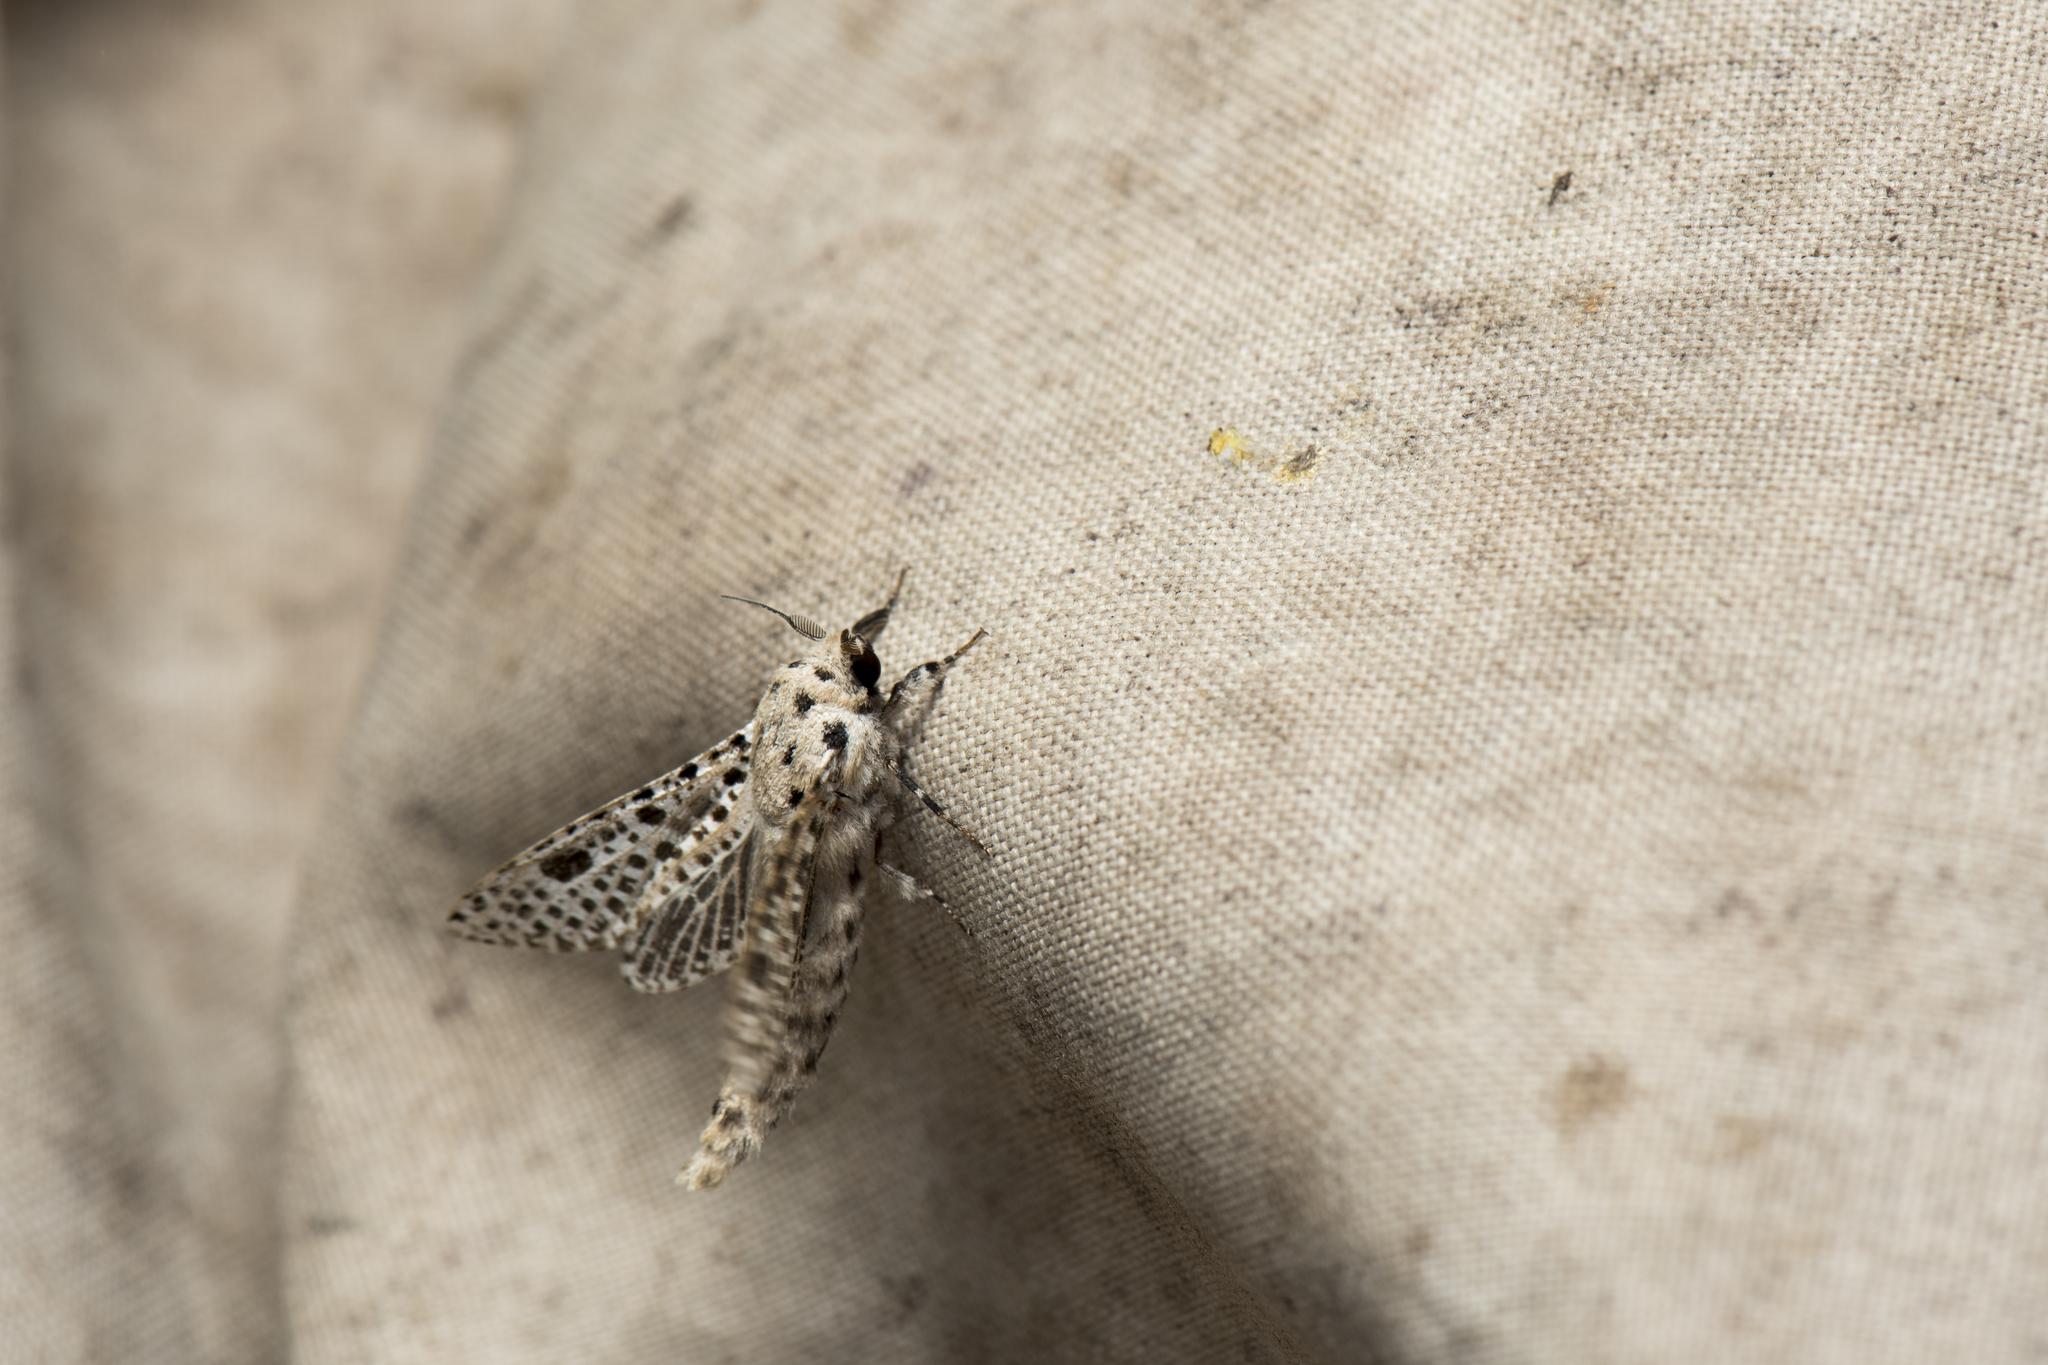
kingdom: Animalia
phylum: Arthropoda
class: Insecta
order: Lepidoptera
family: Cossidae
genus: Rapdalus
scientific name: Rapdalus pardicolor
